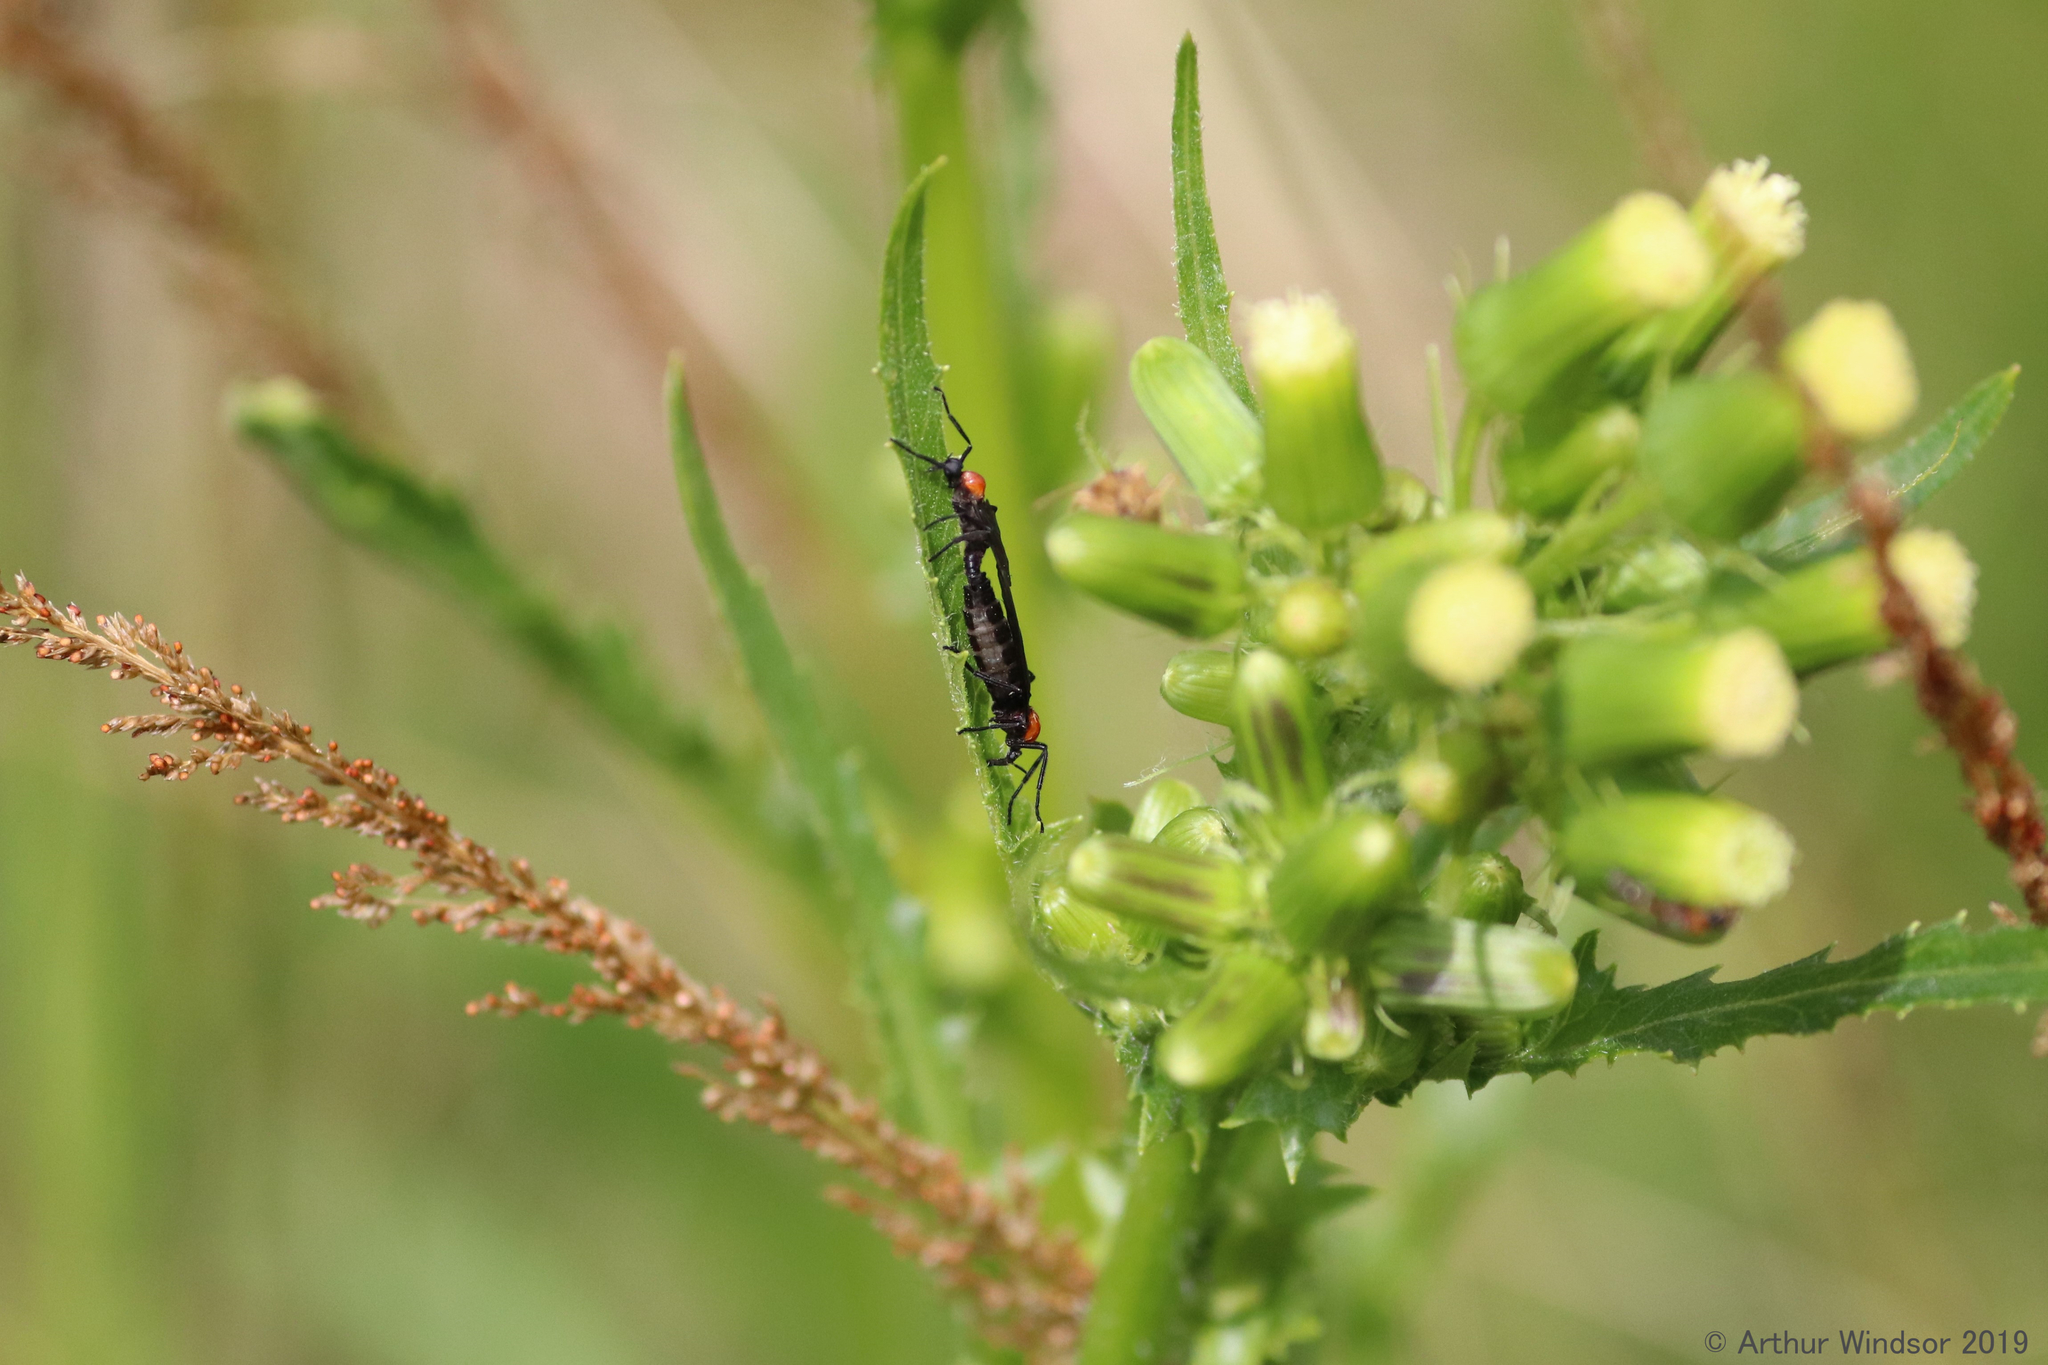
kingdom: Animalia
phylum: Arthropoda
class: Insecta
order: Diptera
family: Bibionidae
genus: Plecia
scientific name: Plecia nearctica
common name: March fly
